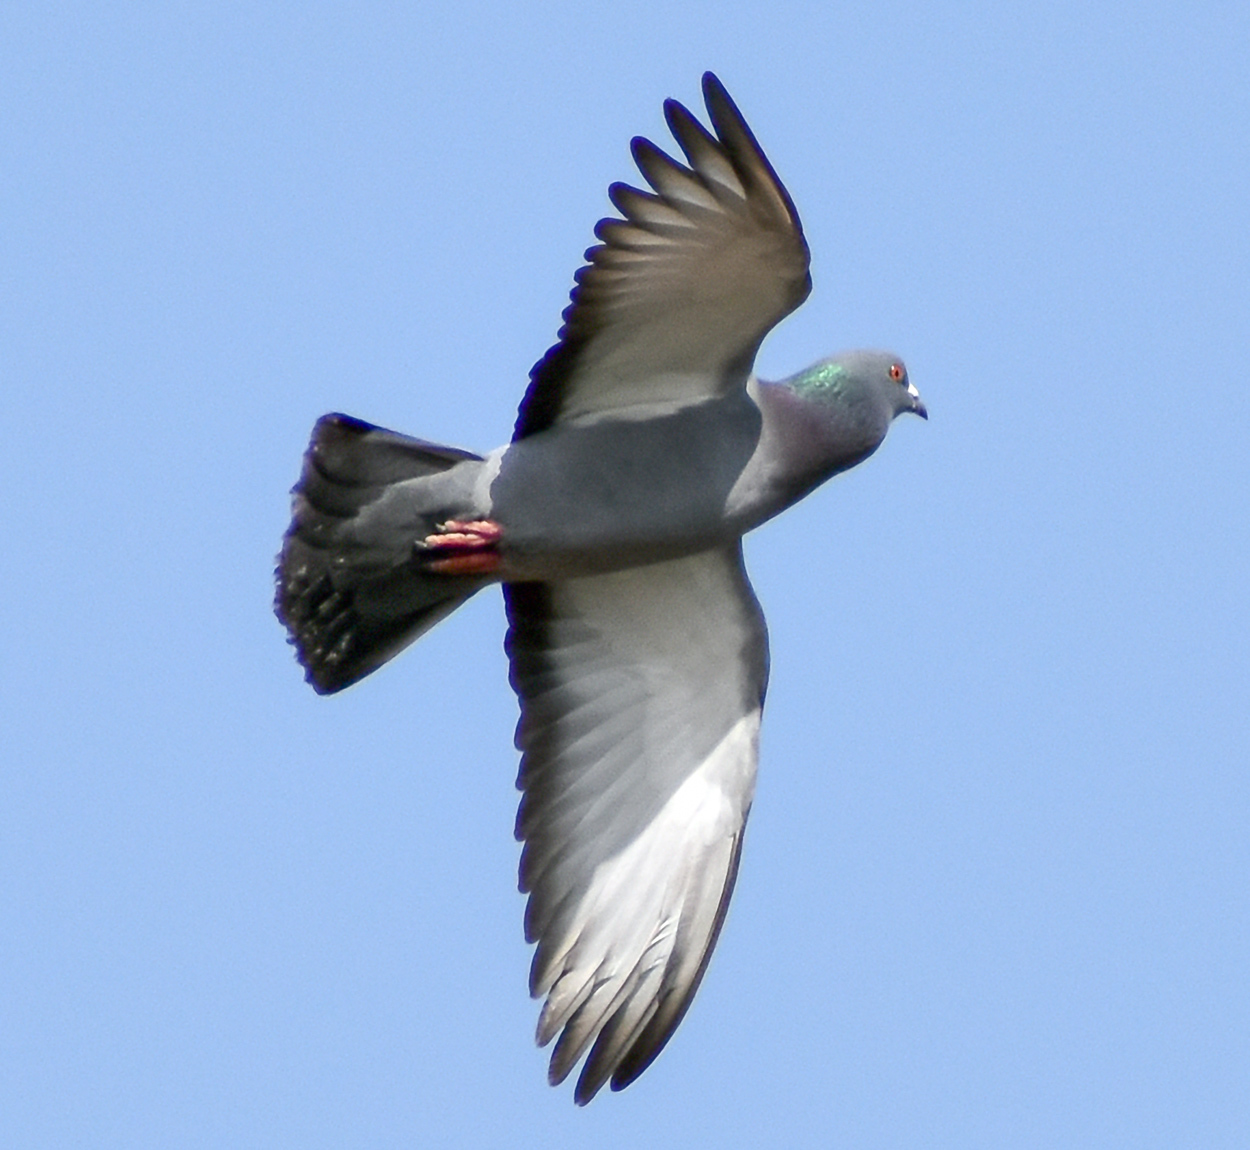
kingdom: Animalia
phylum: Chordata
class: Aves
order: Columbiformes
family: Columbidae
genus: Columba
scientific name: Columba livia
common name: Rock pigeon
